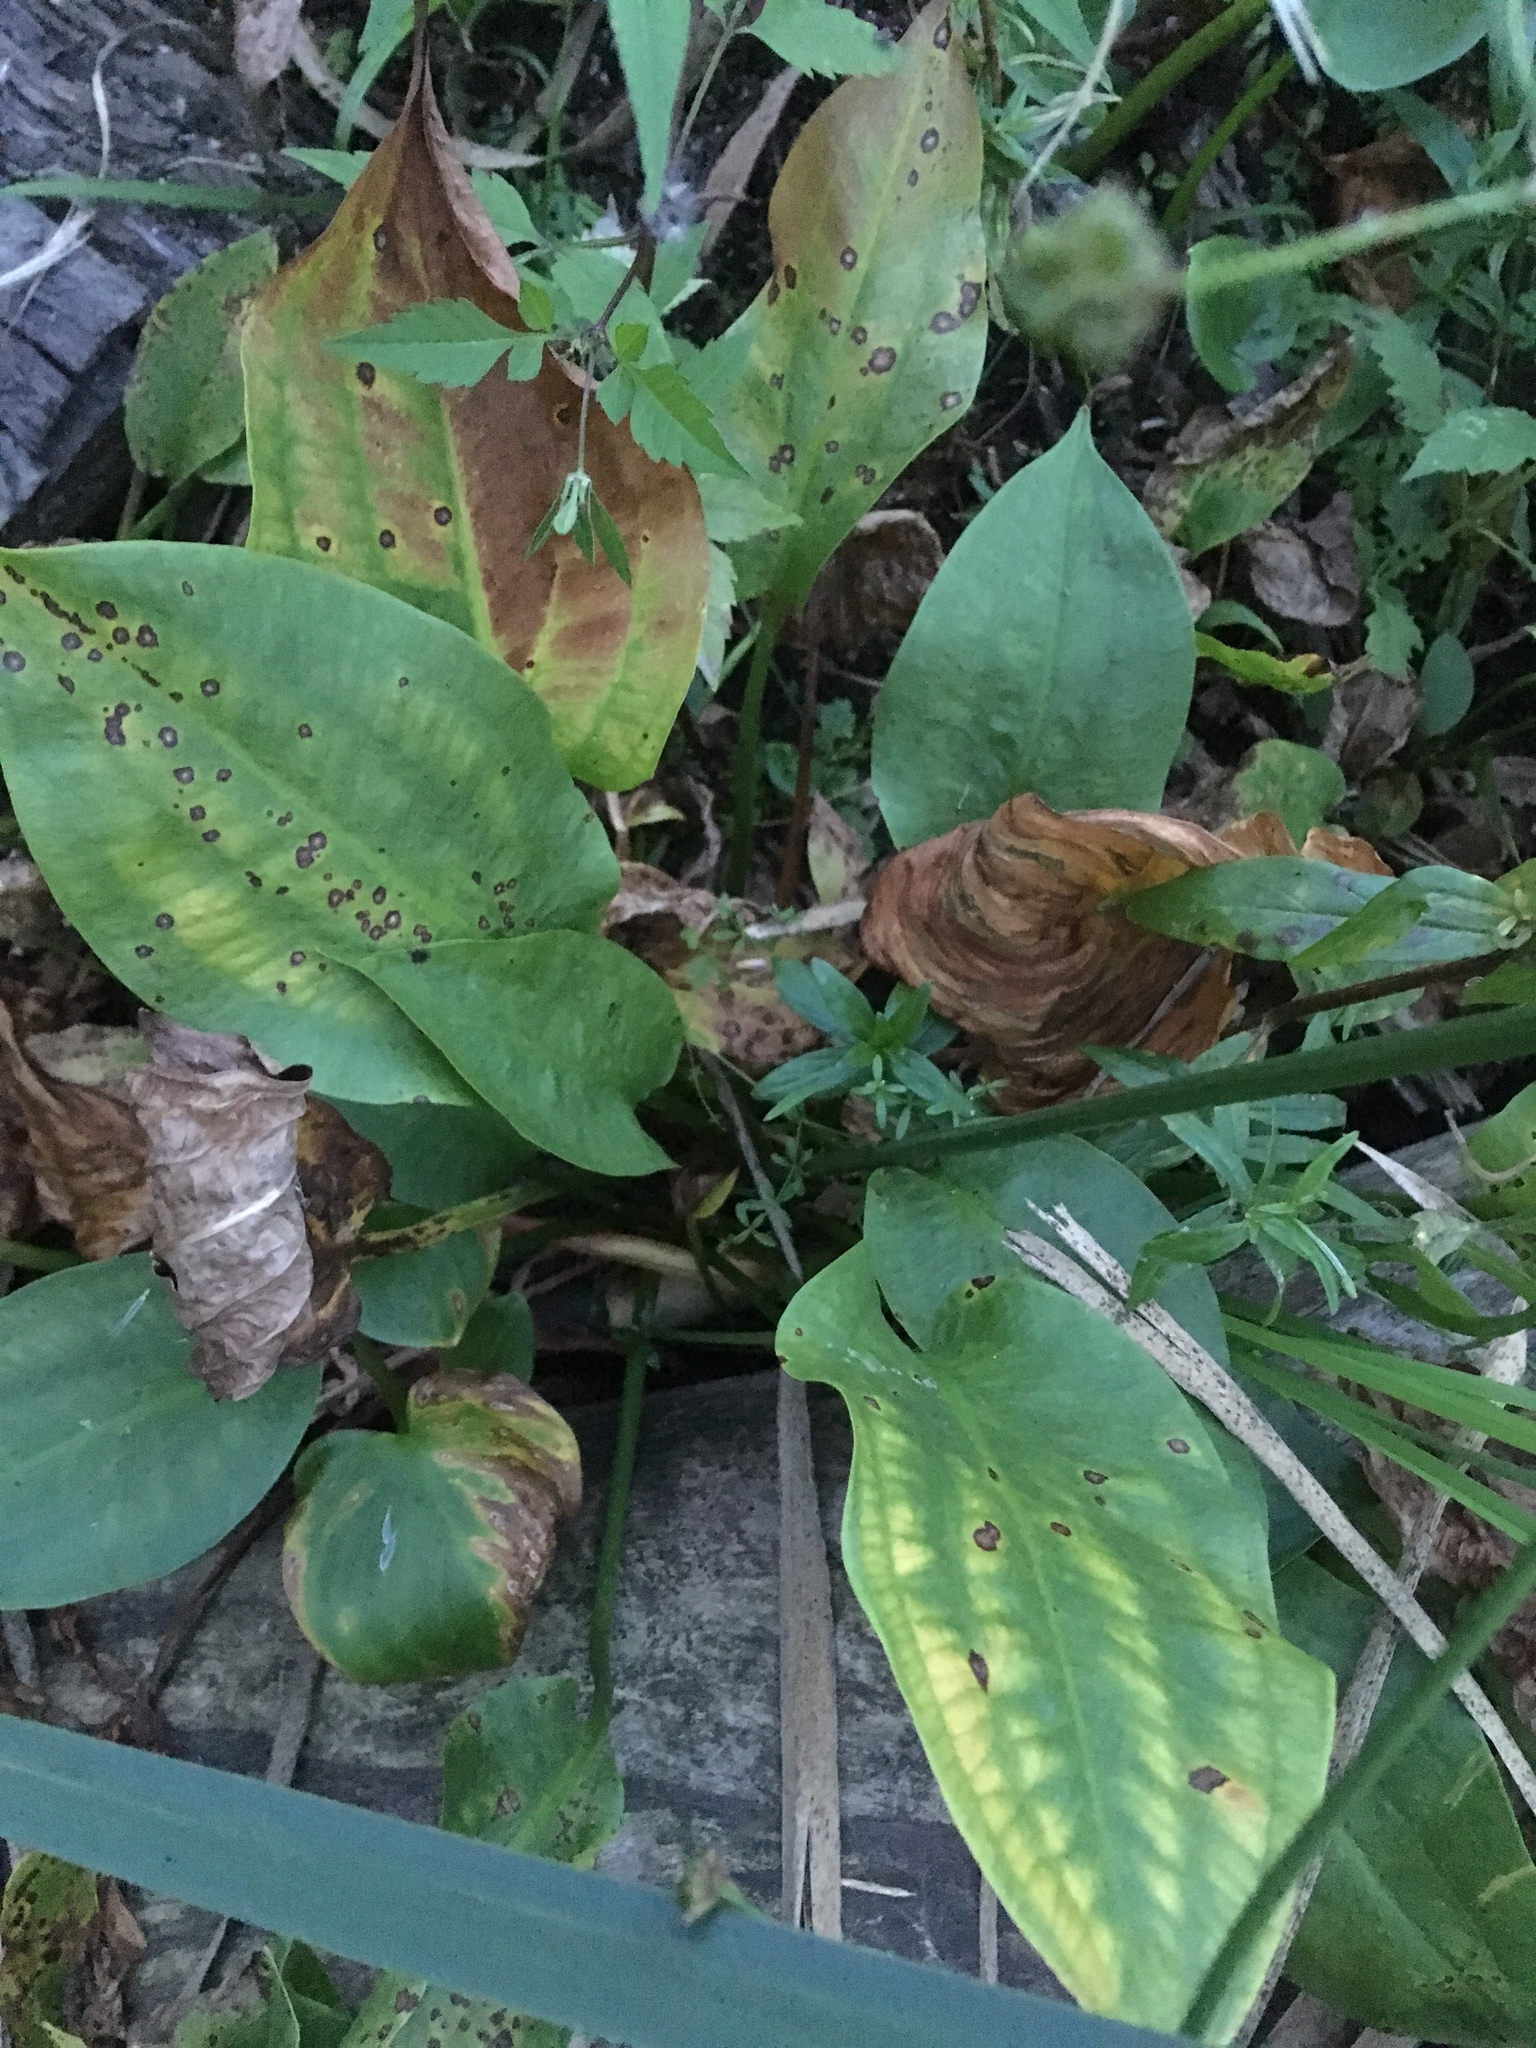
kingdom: Plantae
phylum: Tracheophyta
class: Liliopsida
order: Alismatales
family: Alismataceae
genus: Alisma
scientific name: Alisma plantago-aquatica
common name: Water-plantain
